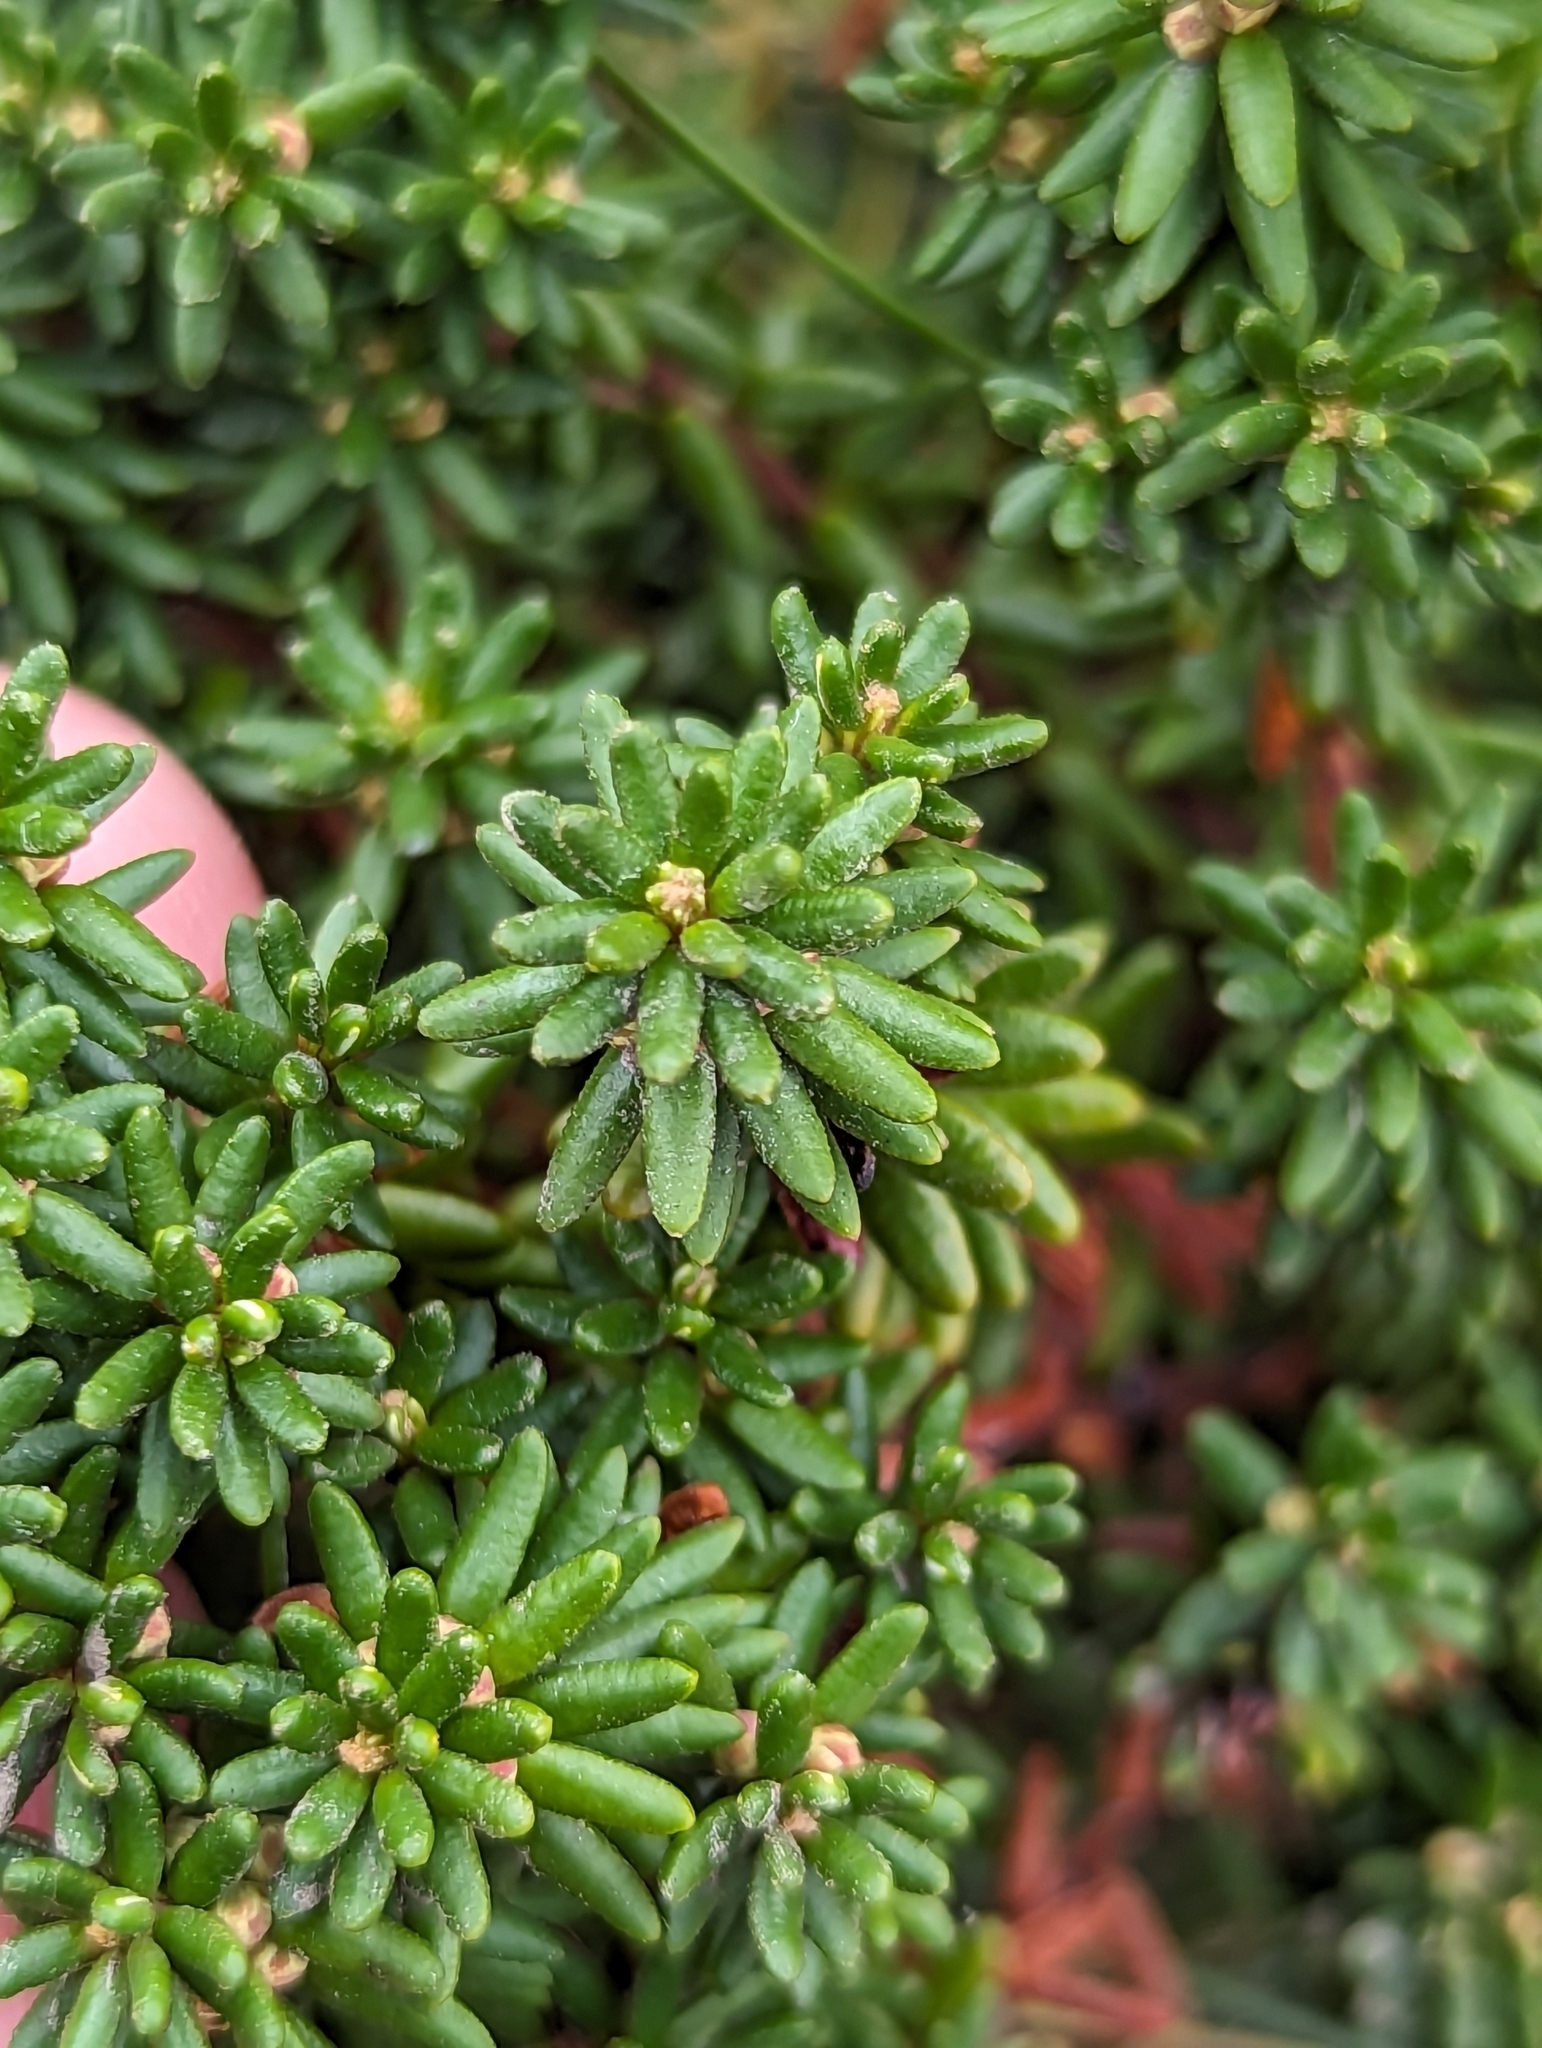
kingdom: Plantae
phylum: Tracheophyta
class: Magnoliopsida
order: Ericales
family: Ericaceae
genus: Empetrum
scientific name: Empetrum nigrum
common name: Black crowberry
